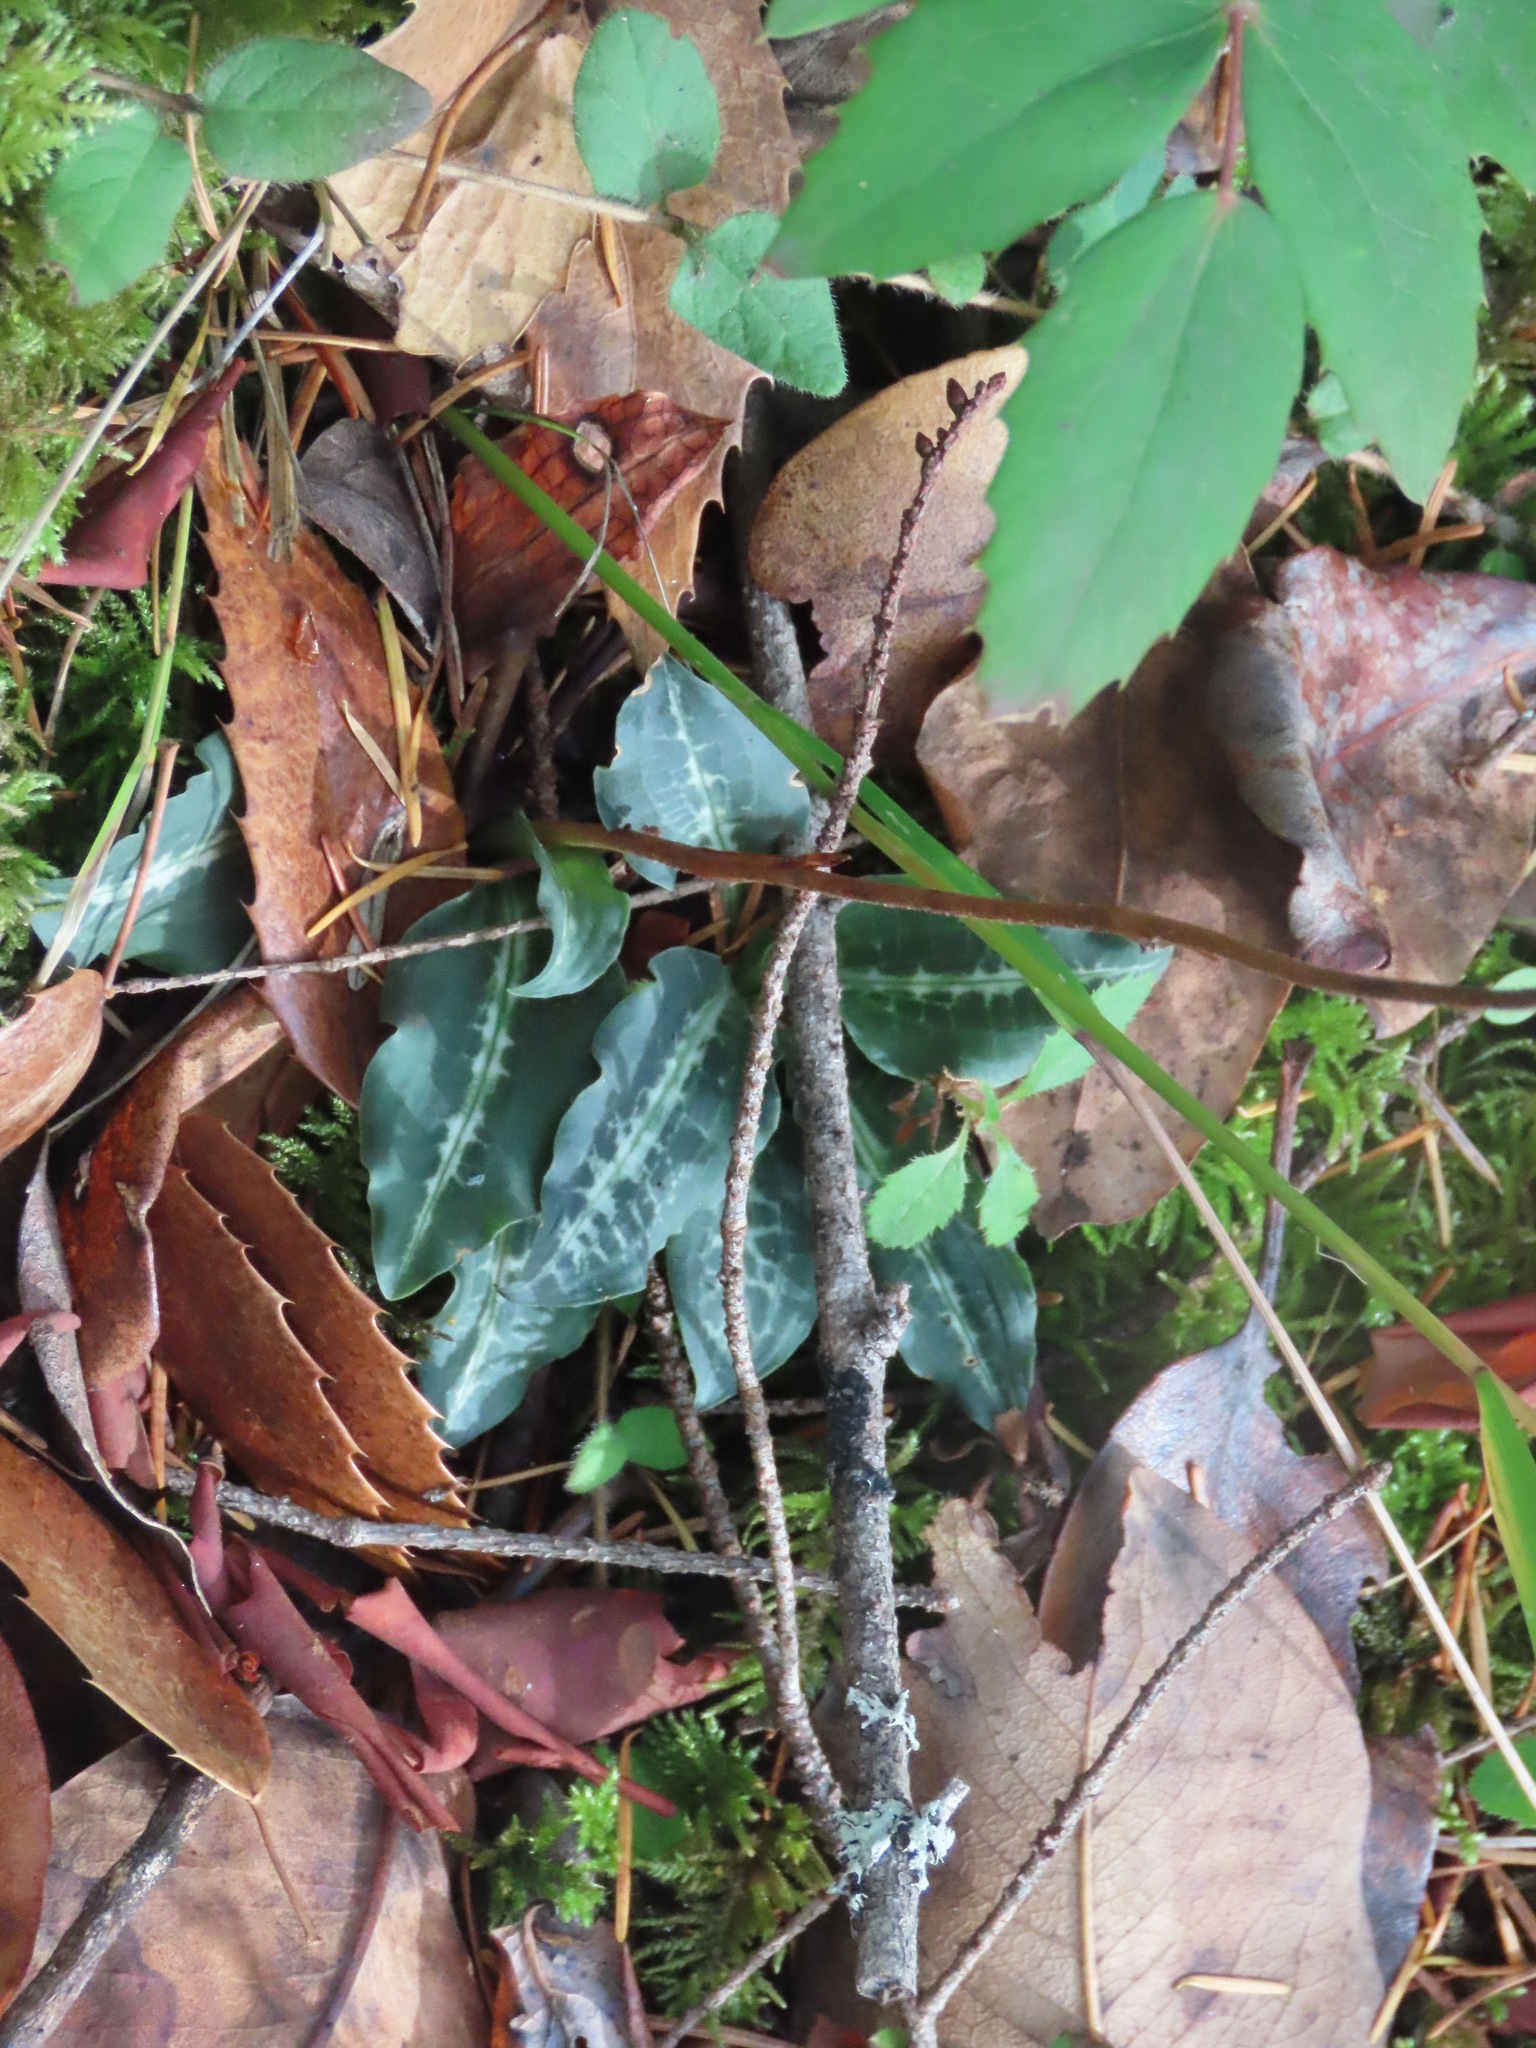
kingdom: Plantae
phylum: Tracheophyta
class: Liliopsida
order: Asparagales
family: Orchidaceae
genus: Goodyera
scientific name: Goodyera oblongifolia
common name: Giant rattlesnake-plantain
